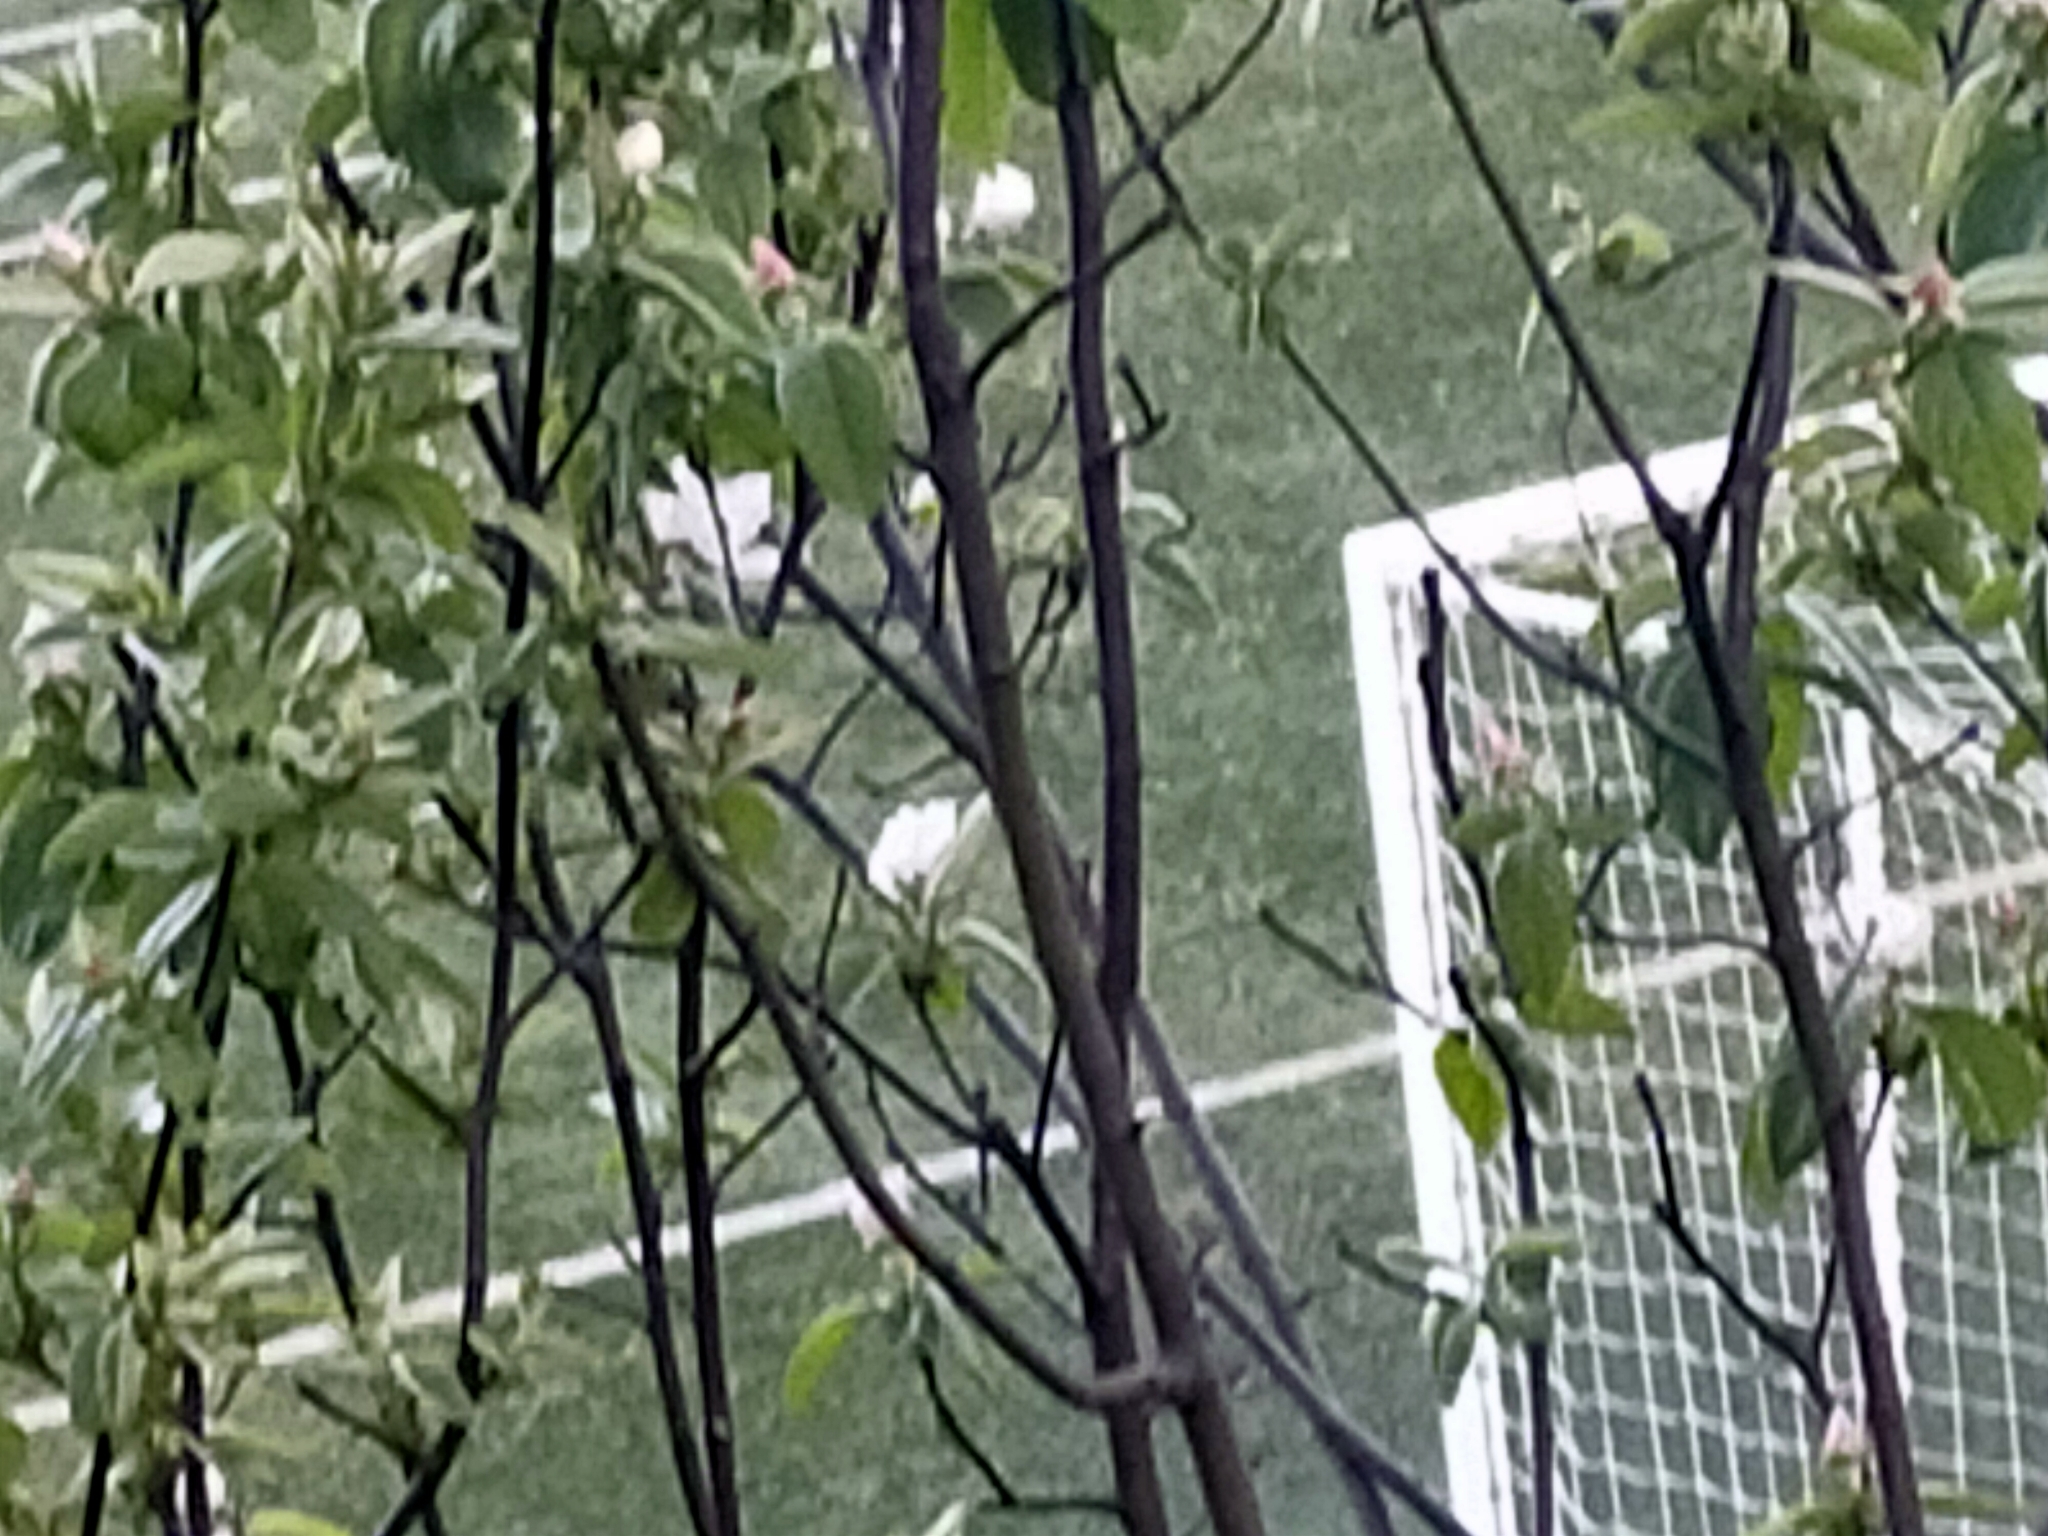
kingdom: Plantae
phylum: Tracheophyta
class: Magnoliopsida
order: Rosales
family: Rosaceae
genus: Cydonia
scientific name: Cydonia oblonga
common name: Quince
